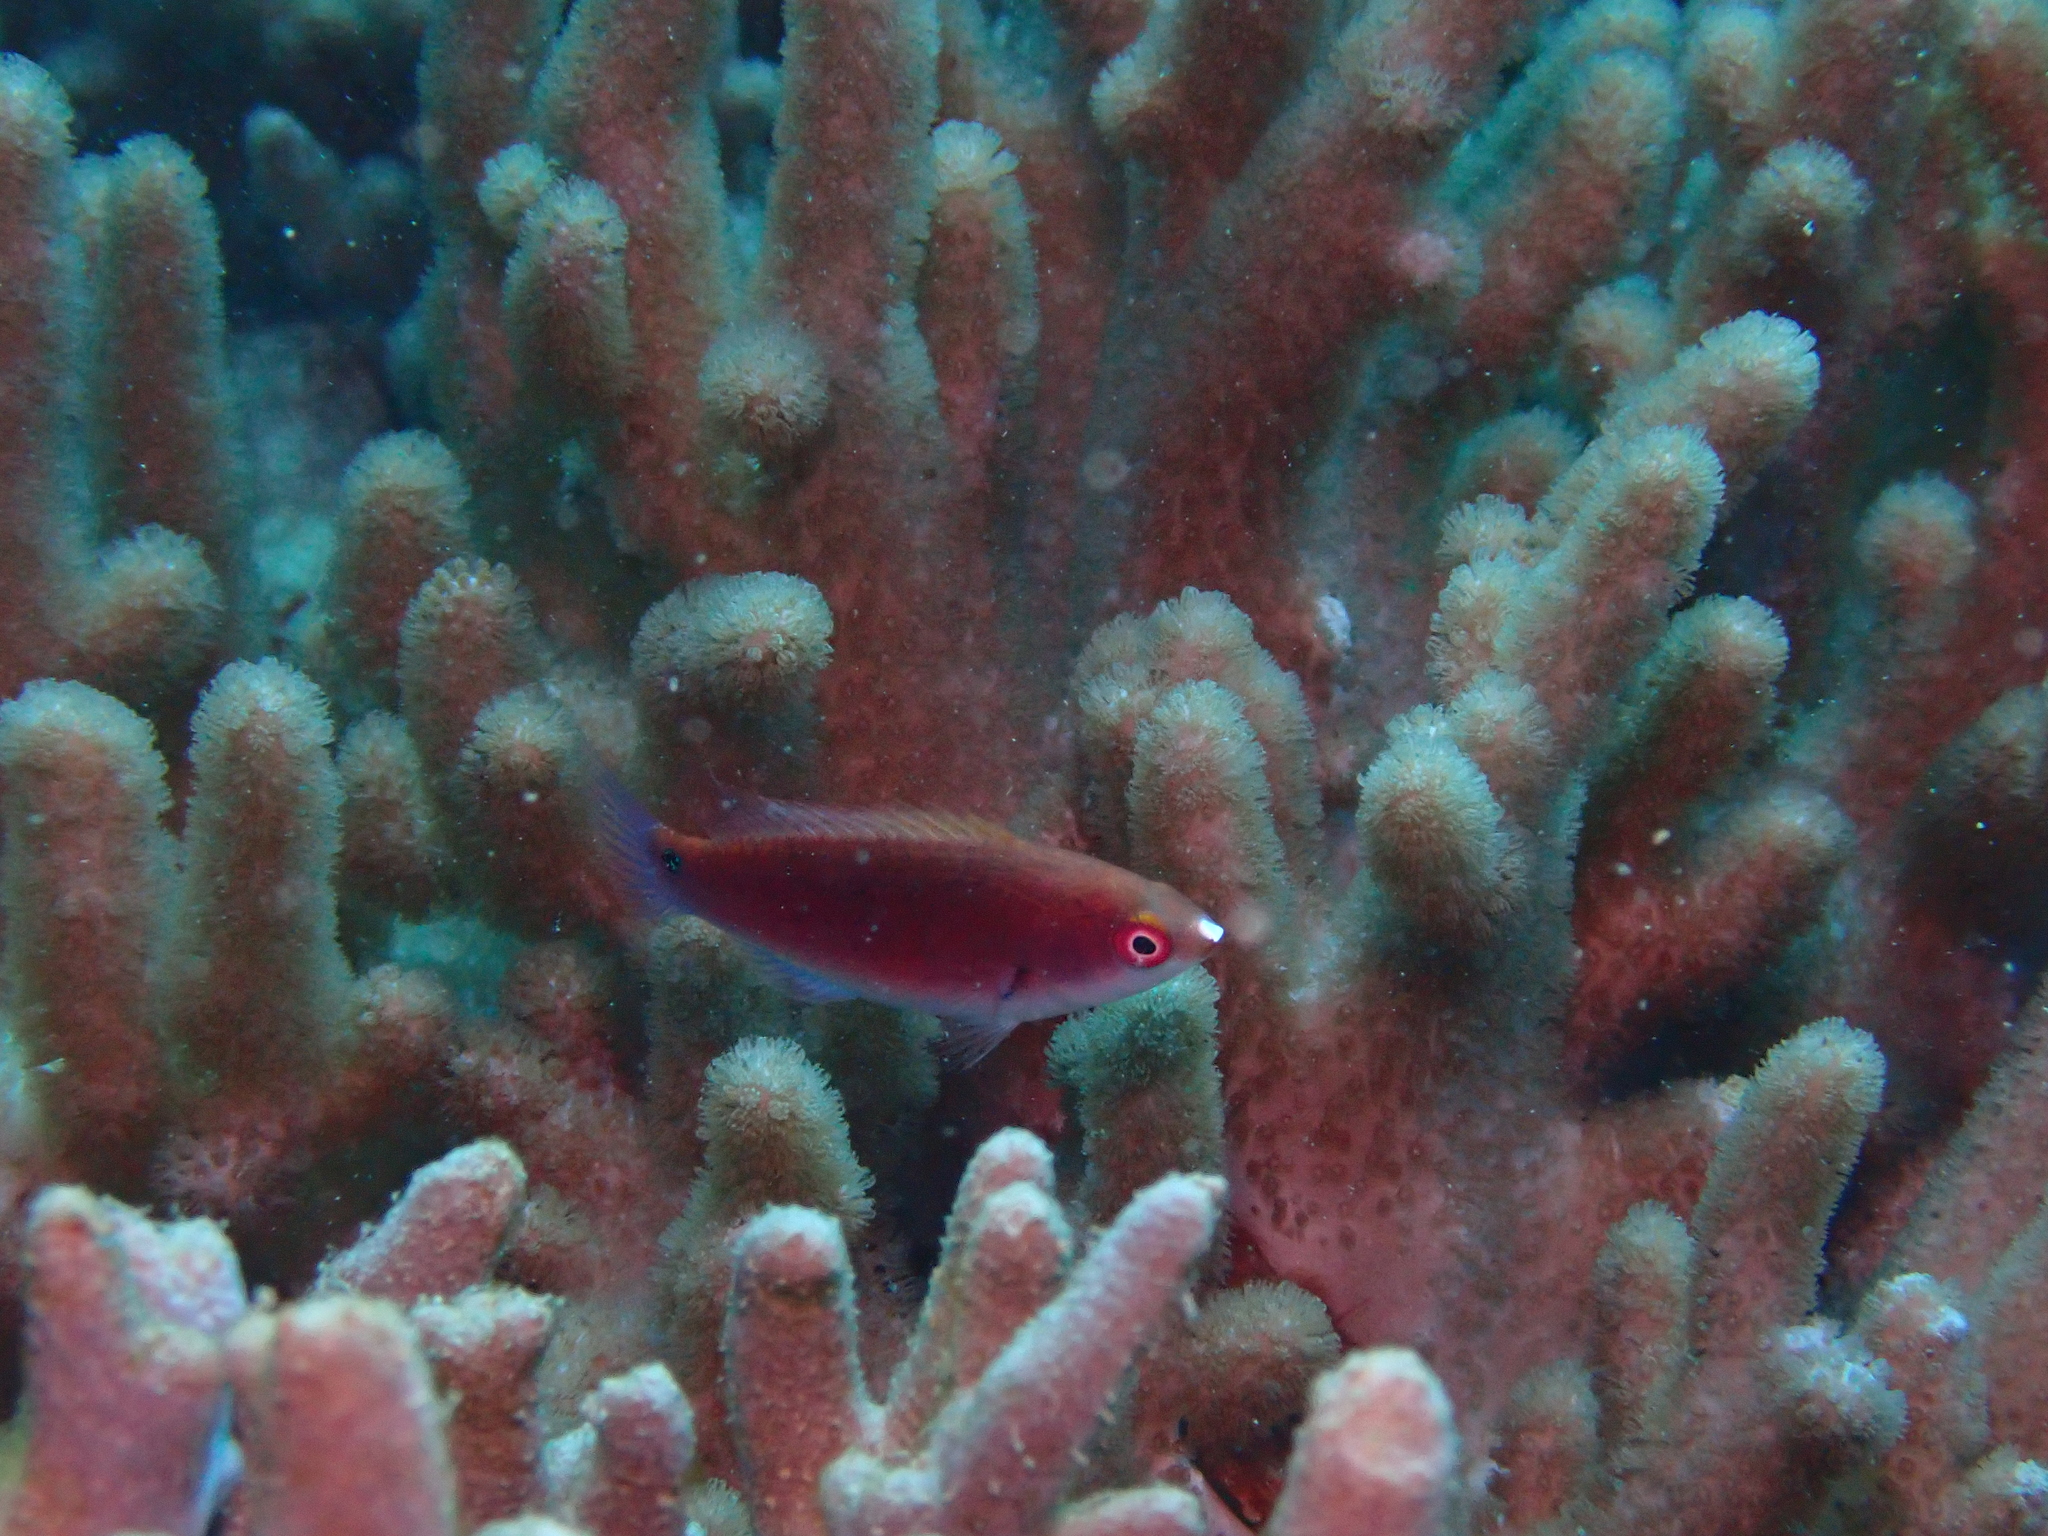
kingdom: Animalia
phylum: Chordata
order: Perciformes
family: Labridae
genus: Cirrhilabrus
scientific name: Cirrhilabrus cyanopleura
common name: Coralline wrasse
